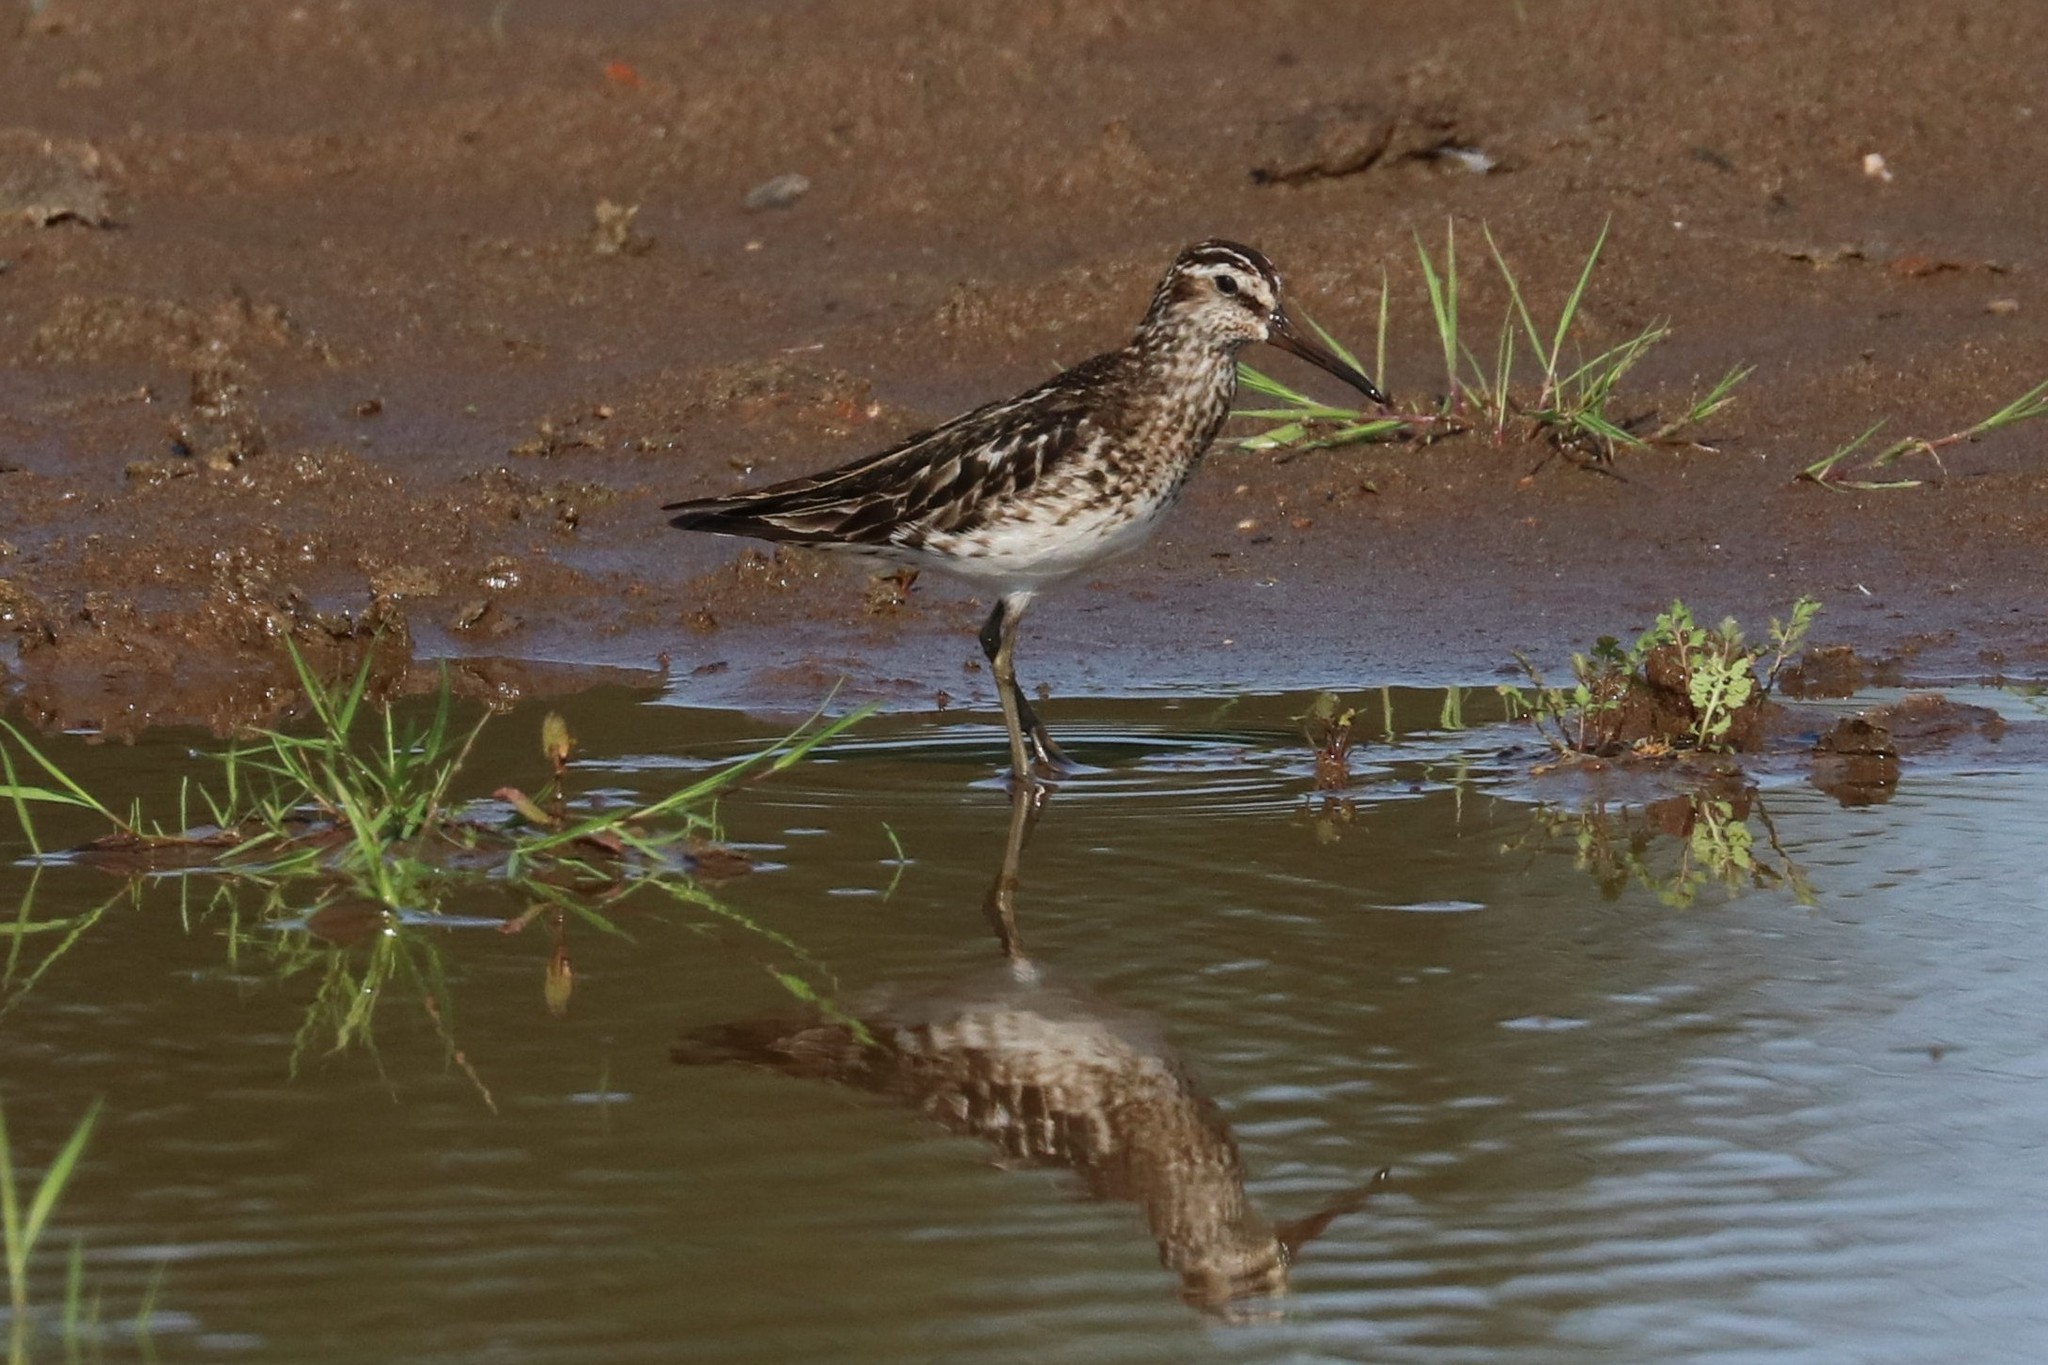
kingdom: Animalia
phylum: Chordata
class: Aves
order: Charadriiformes
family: Scolopacidae
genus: Calidris
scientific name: Calidris falcinellus
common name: Broad-billed sandpiper
